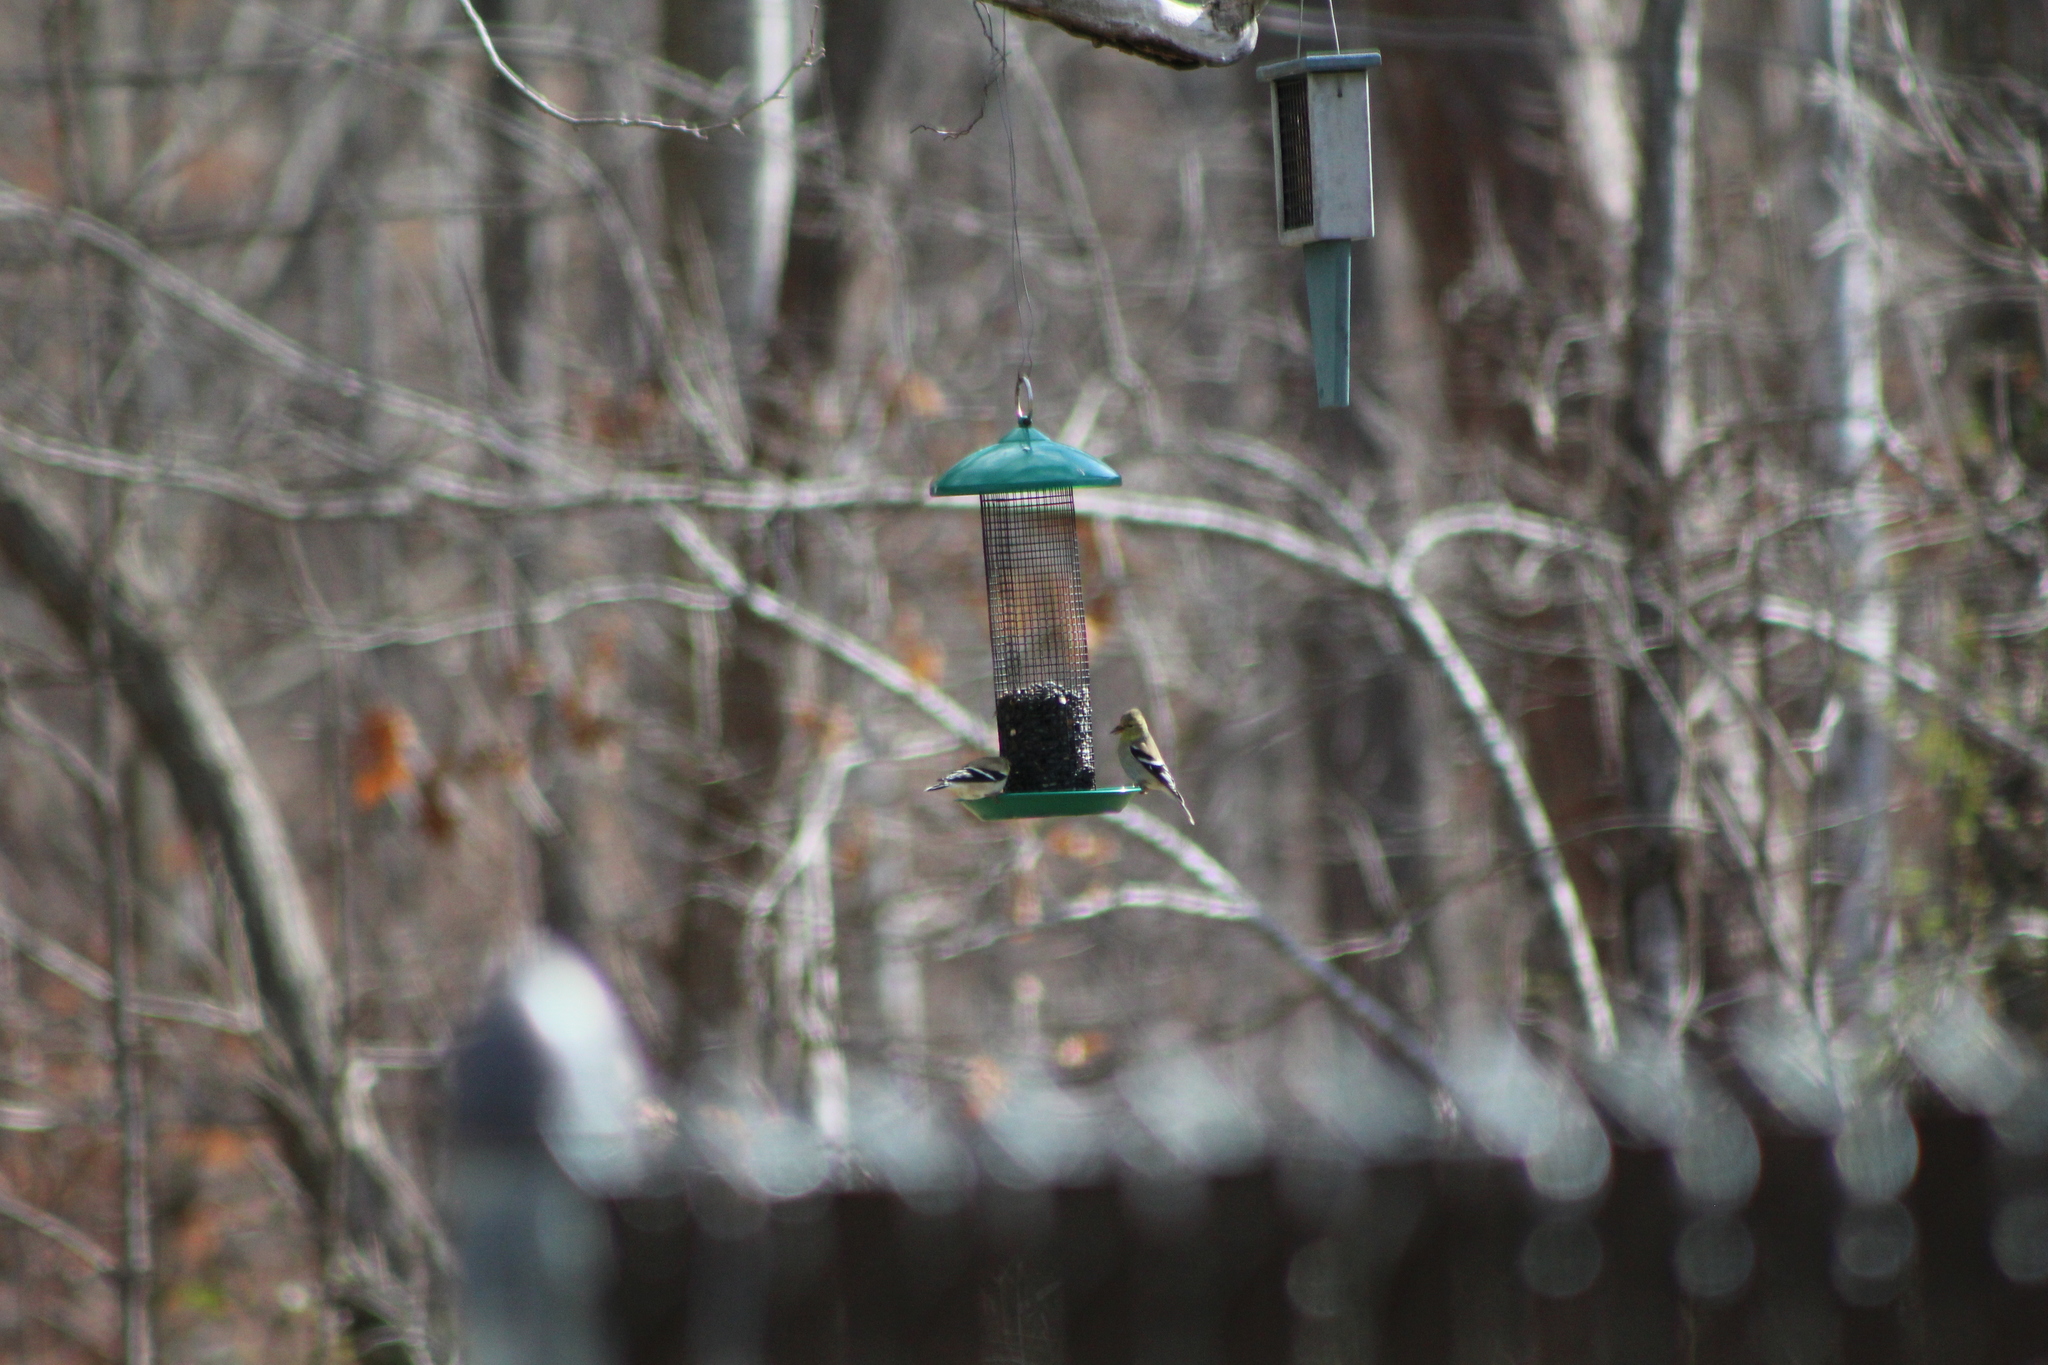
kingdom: Animalia
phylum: Chordata
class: Aves
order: Passeriformes
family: Fringillidae
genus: Spinus
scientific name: Spinus tristis
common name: American goldfinch
